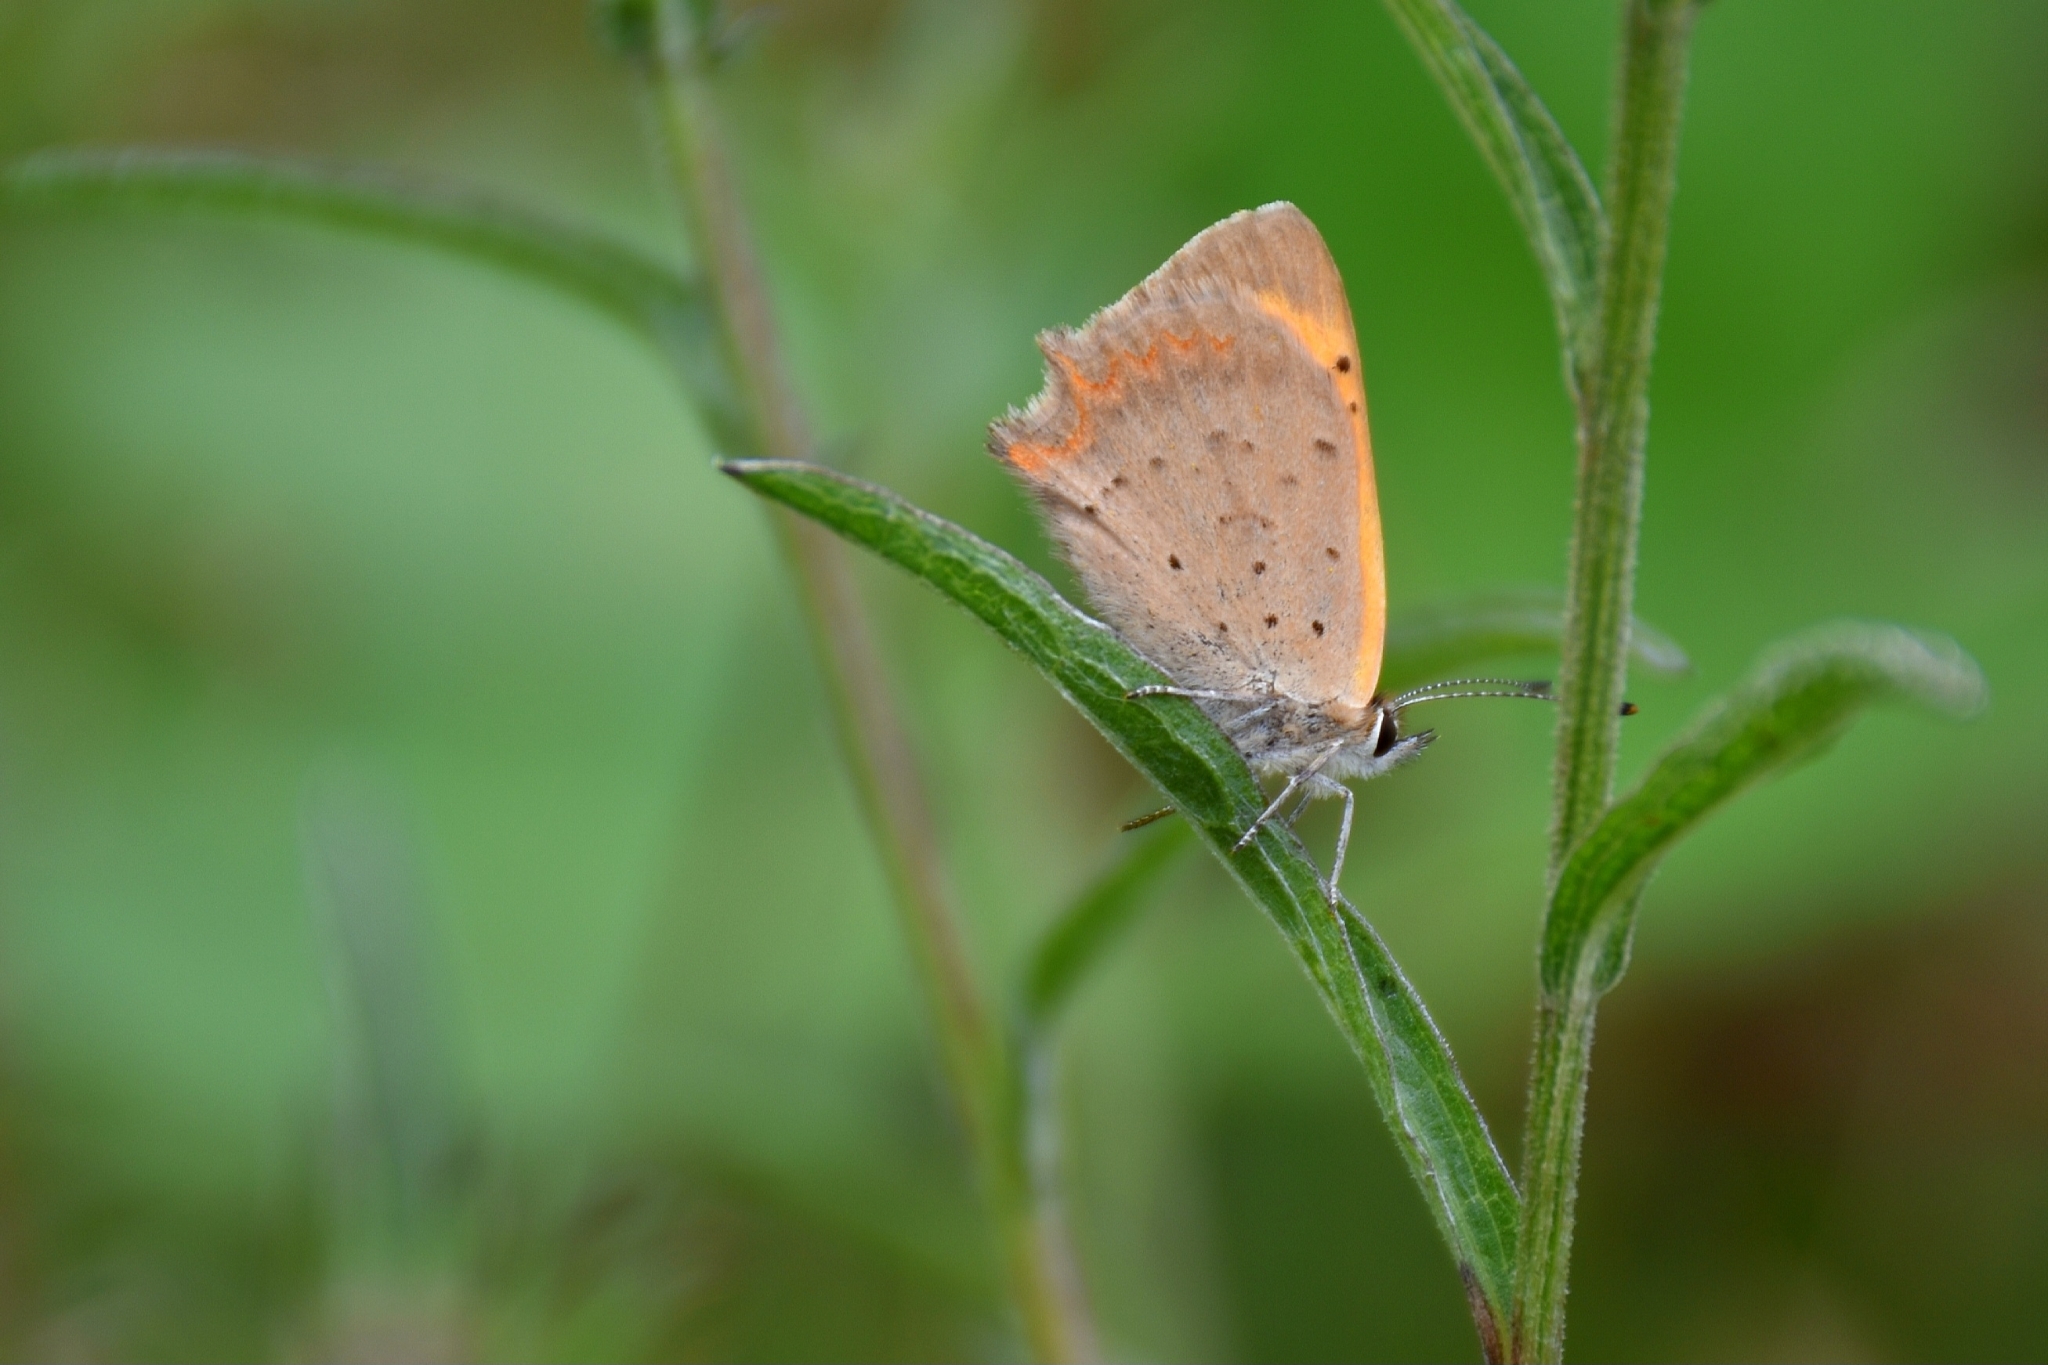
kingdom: Animalia
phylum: Arthropoda
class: Insecta
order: Lepidoptera
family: Lycaenidae
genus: Lycaena
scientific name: Lycaena phlaeas
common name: Small copper
